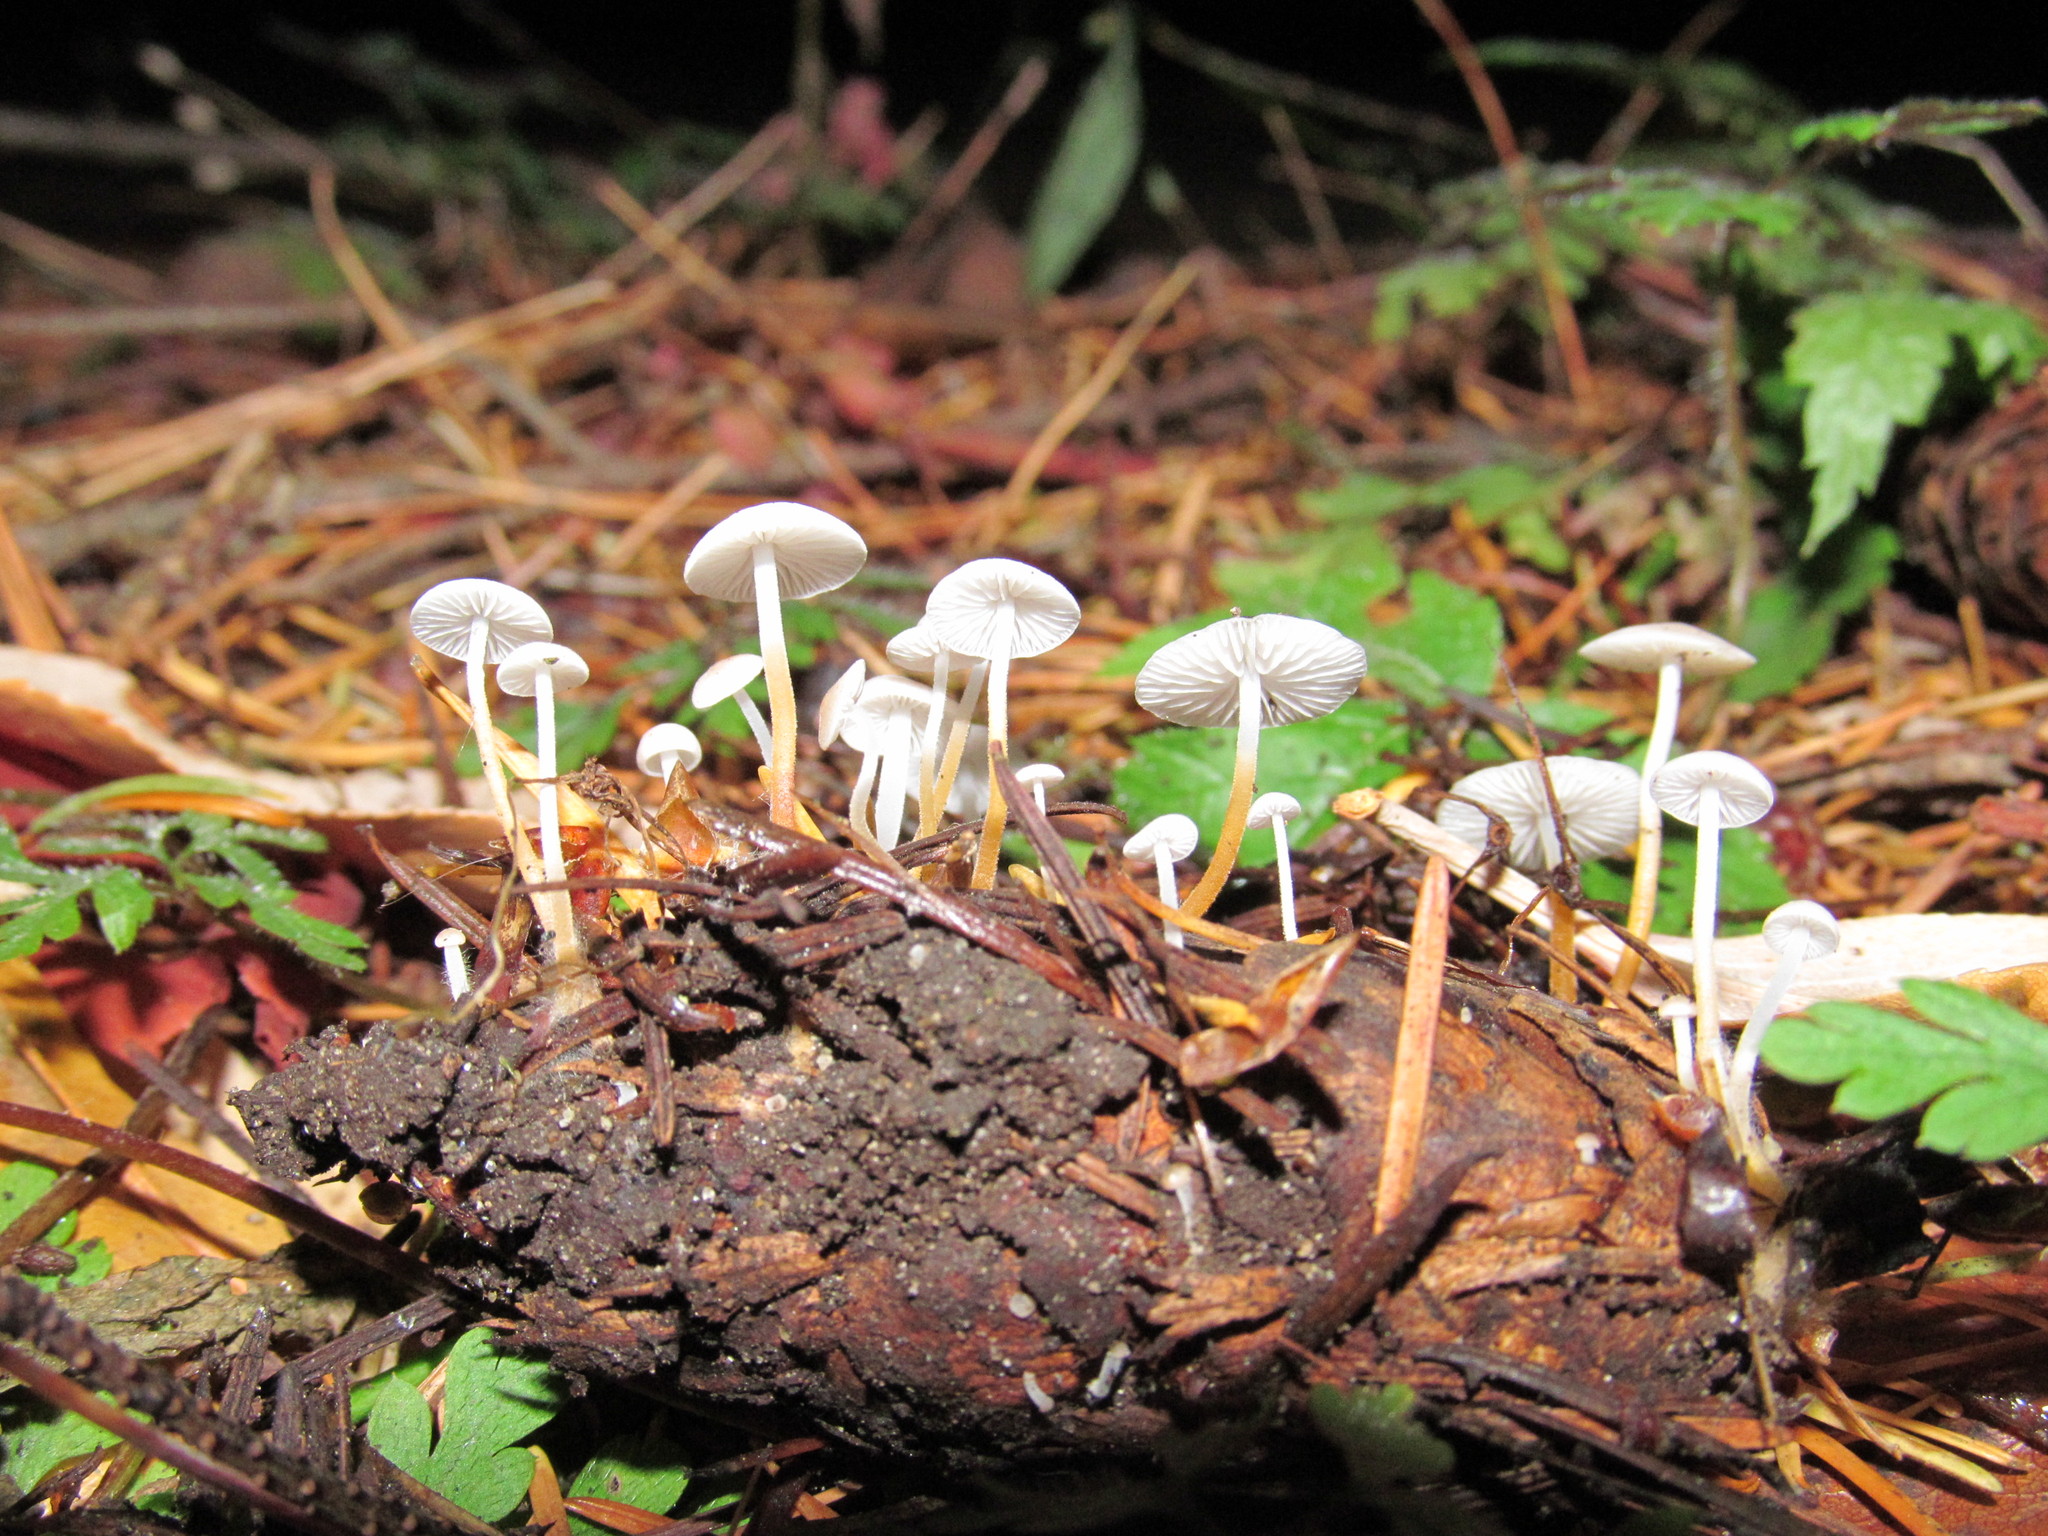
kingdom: Fungi
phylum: Basidiomycota
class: Agaricomycetes
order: Agaricales
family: Physalacriaceae
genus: Strobilurus
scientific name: Strobilurus trullisatus
